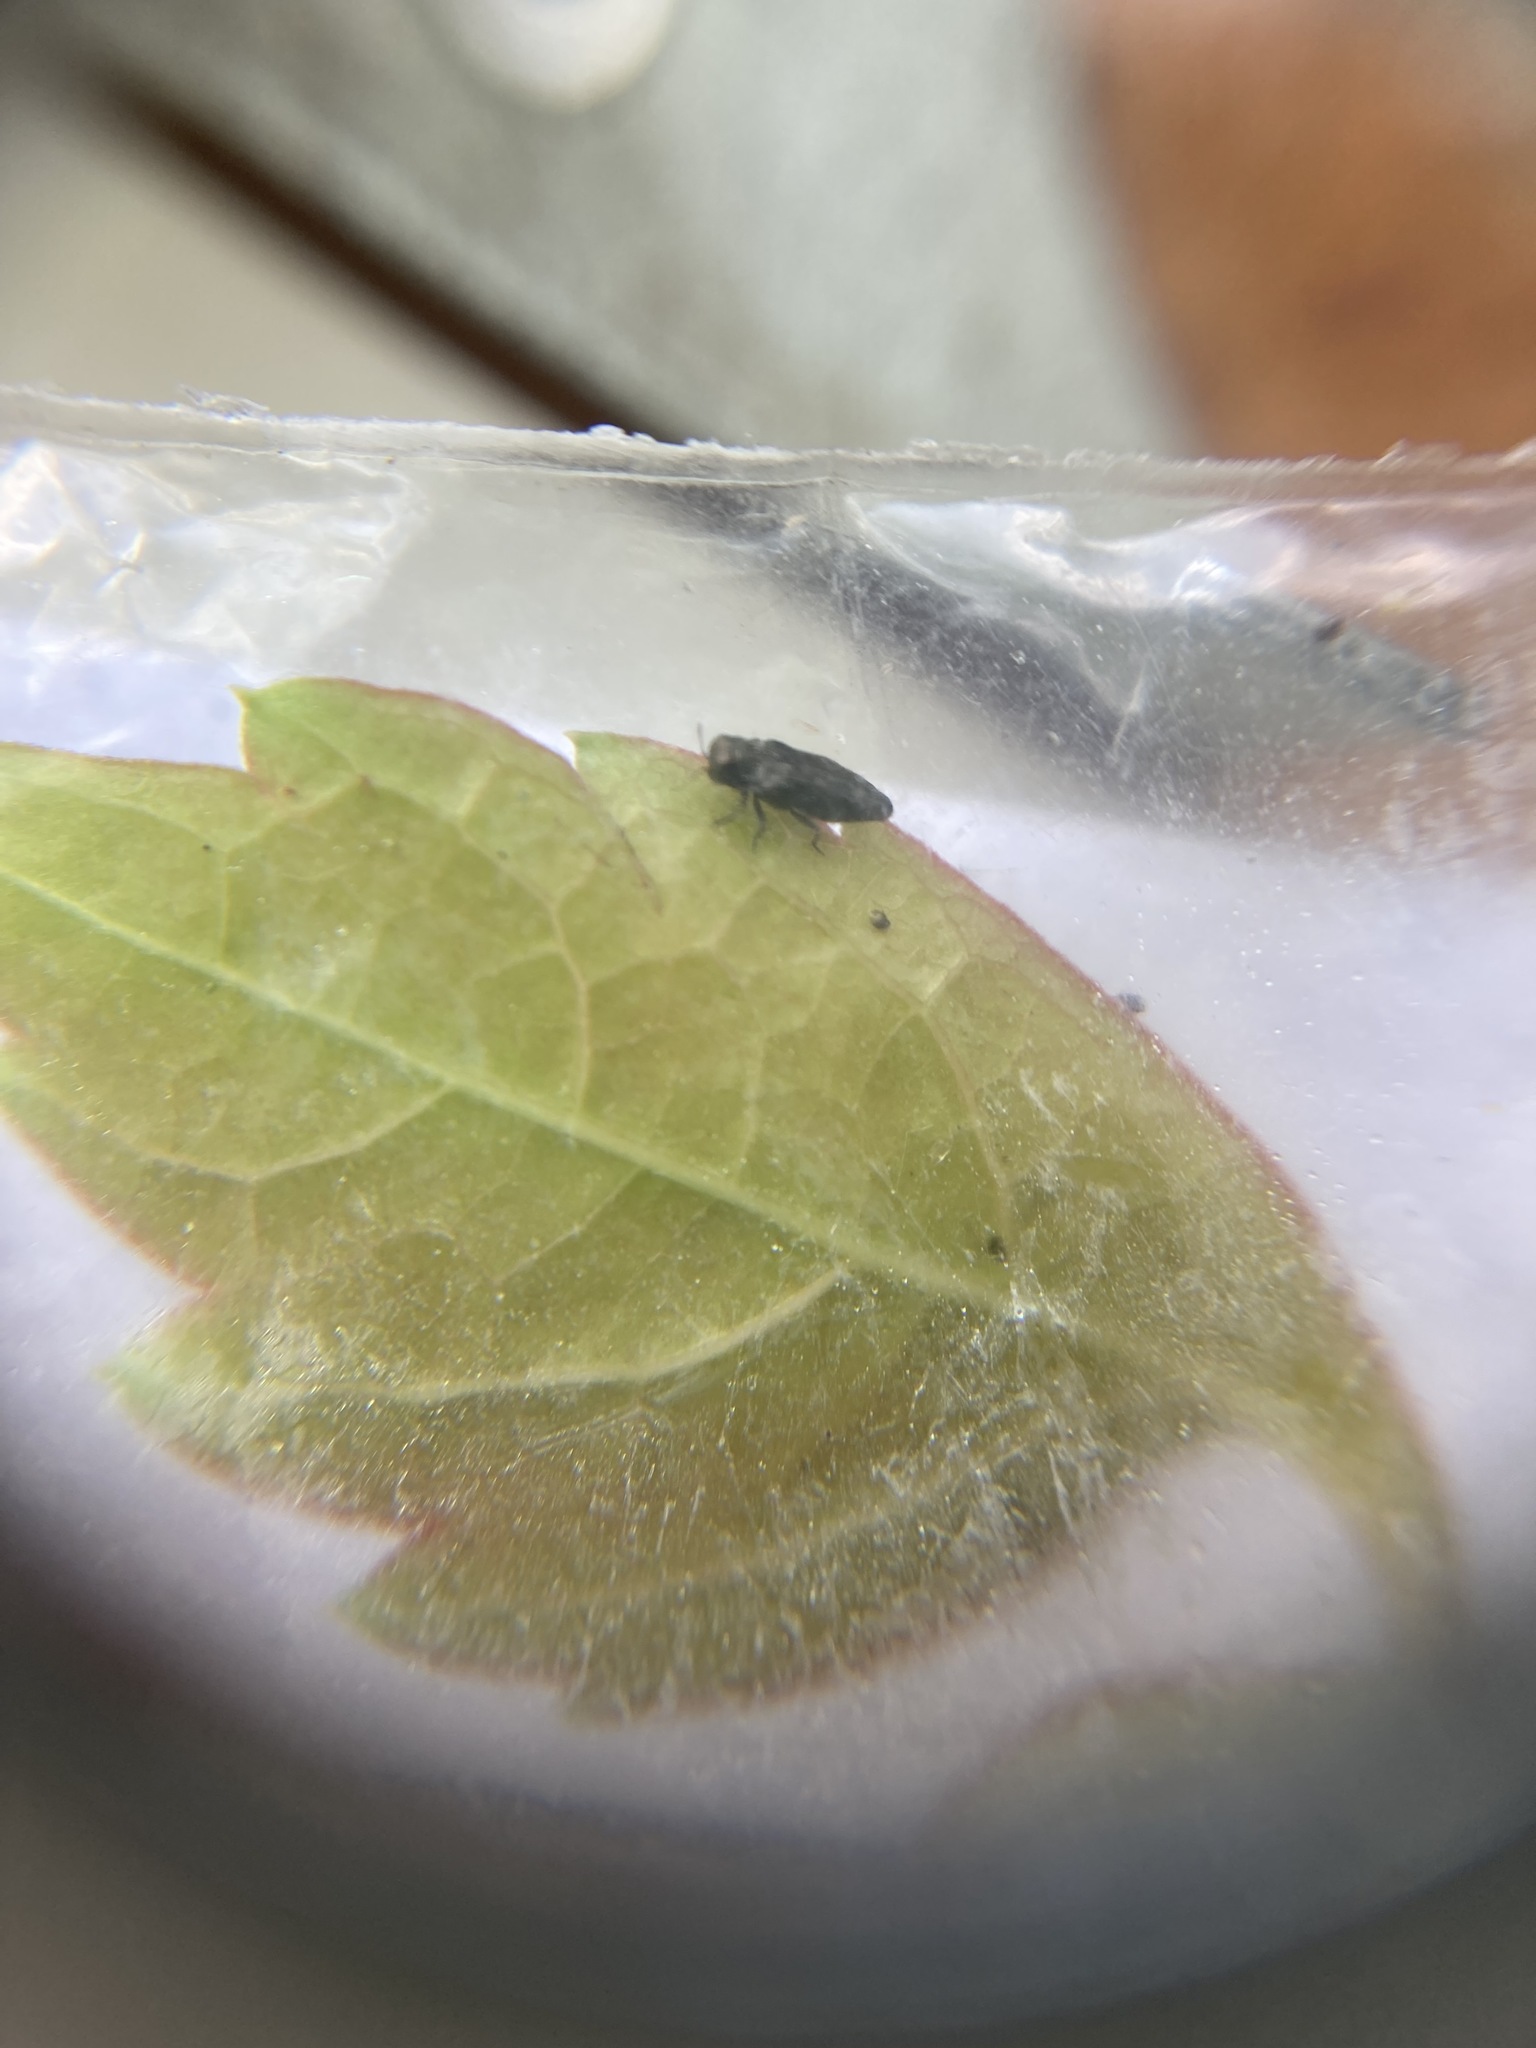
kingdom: Animalia
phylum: Arthropoda
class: Insecta
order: Coleoptera
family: Buprestidae
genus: Taphrocerus
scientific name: Taphrocerus gracilis
